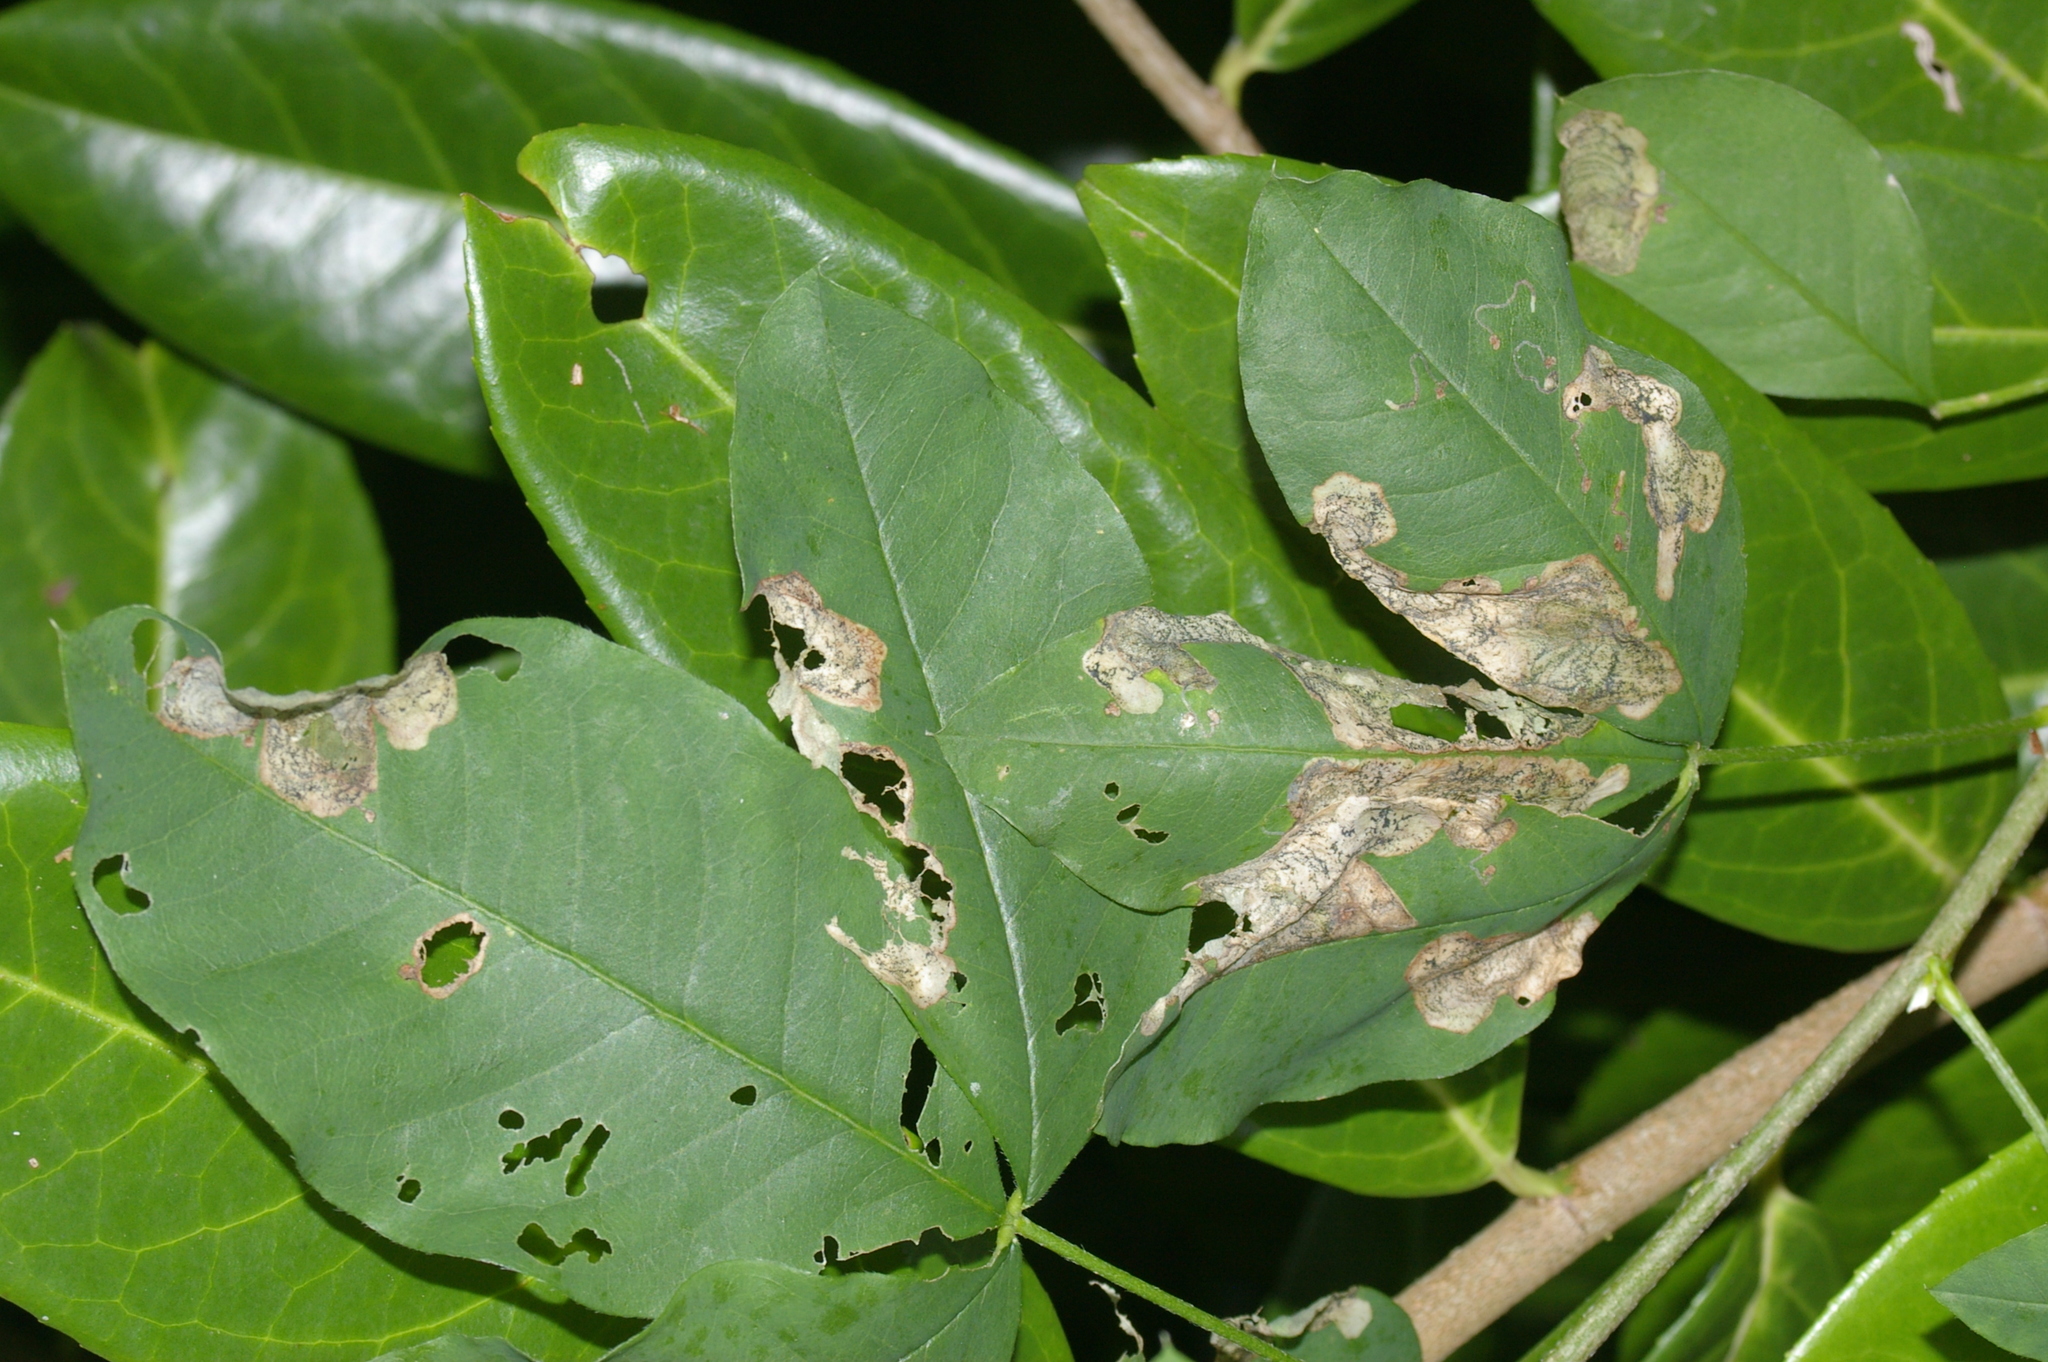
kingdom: Animalia
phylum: Arthropoda
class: Insecta
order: Lepidoptera
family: Lyonetiidae
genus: Leucoptera
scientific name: Leucoptera laburnella
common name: Laburnum leaf miner
